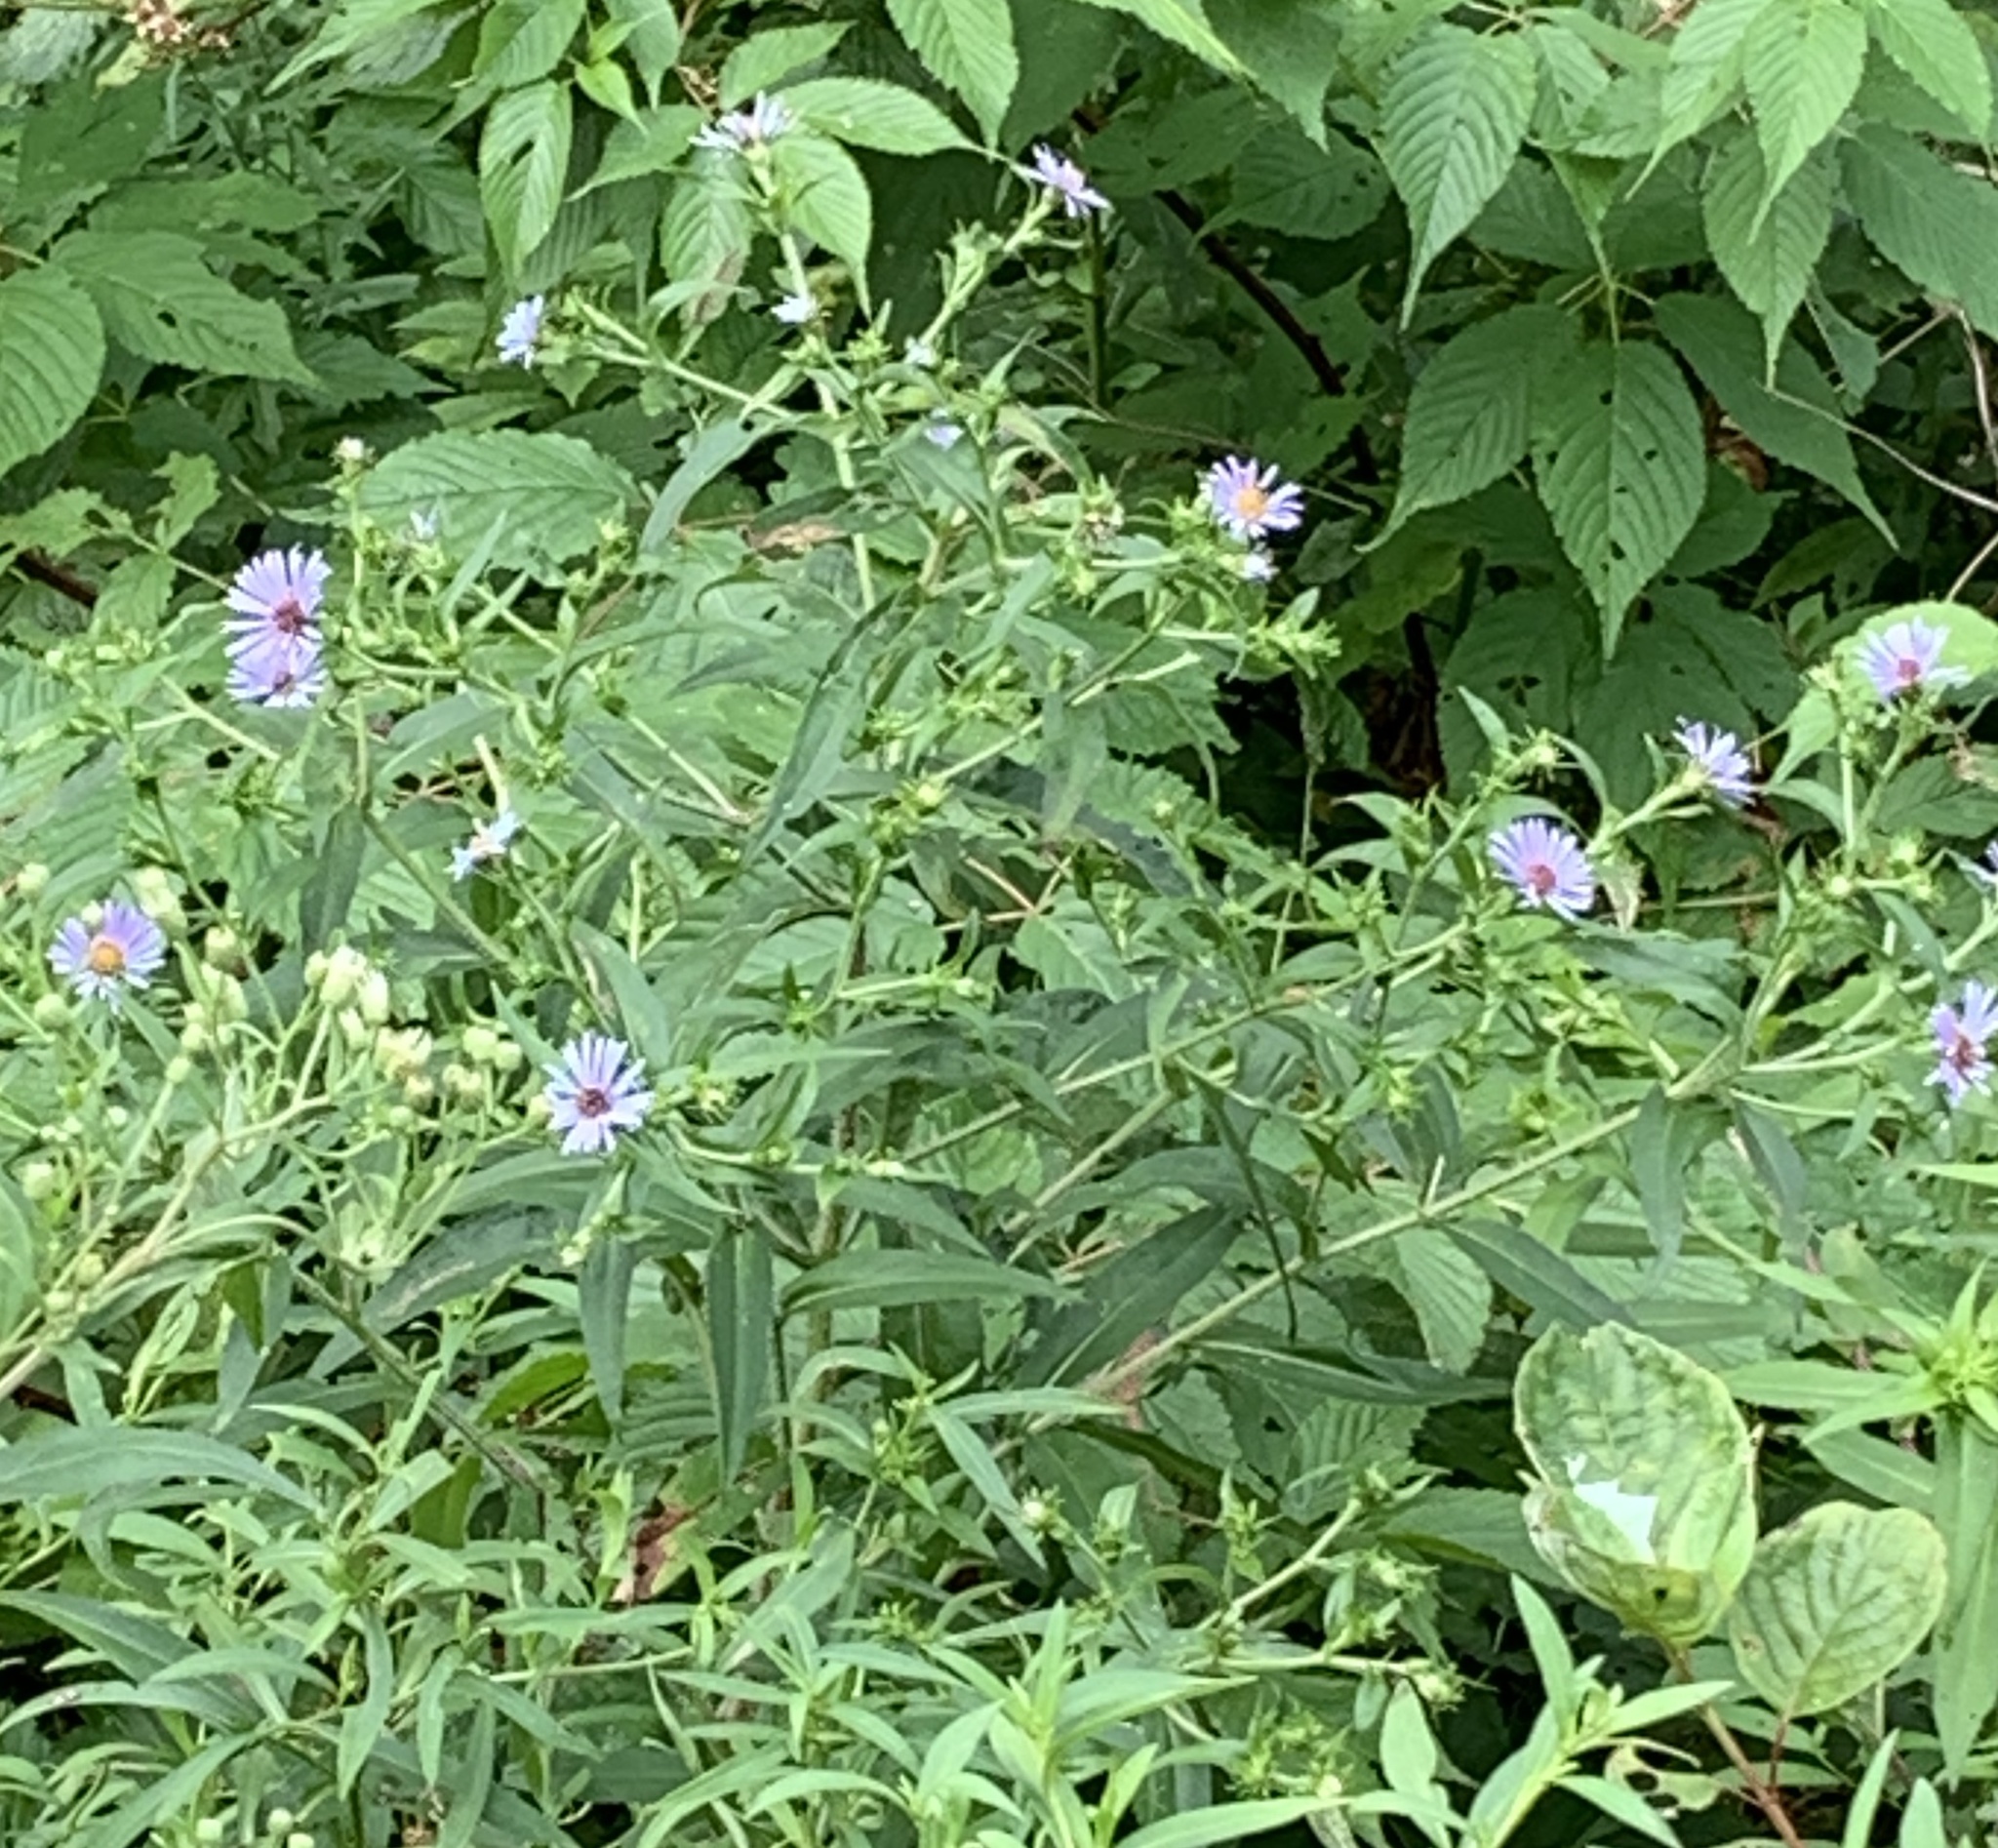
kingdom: Plantae
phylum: Tracheophyta
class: Magnoliopsida
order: Asterales
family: Asteraceae
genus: Symphyotrichum
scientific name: Symphyotrichum puniceum
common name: Bog aster
